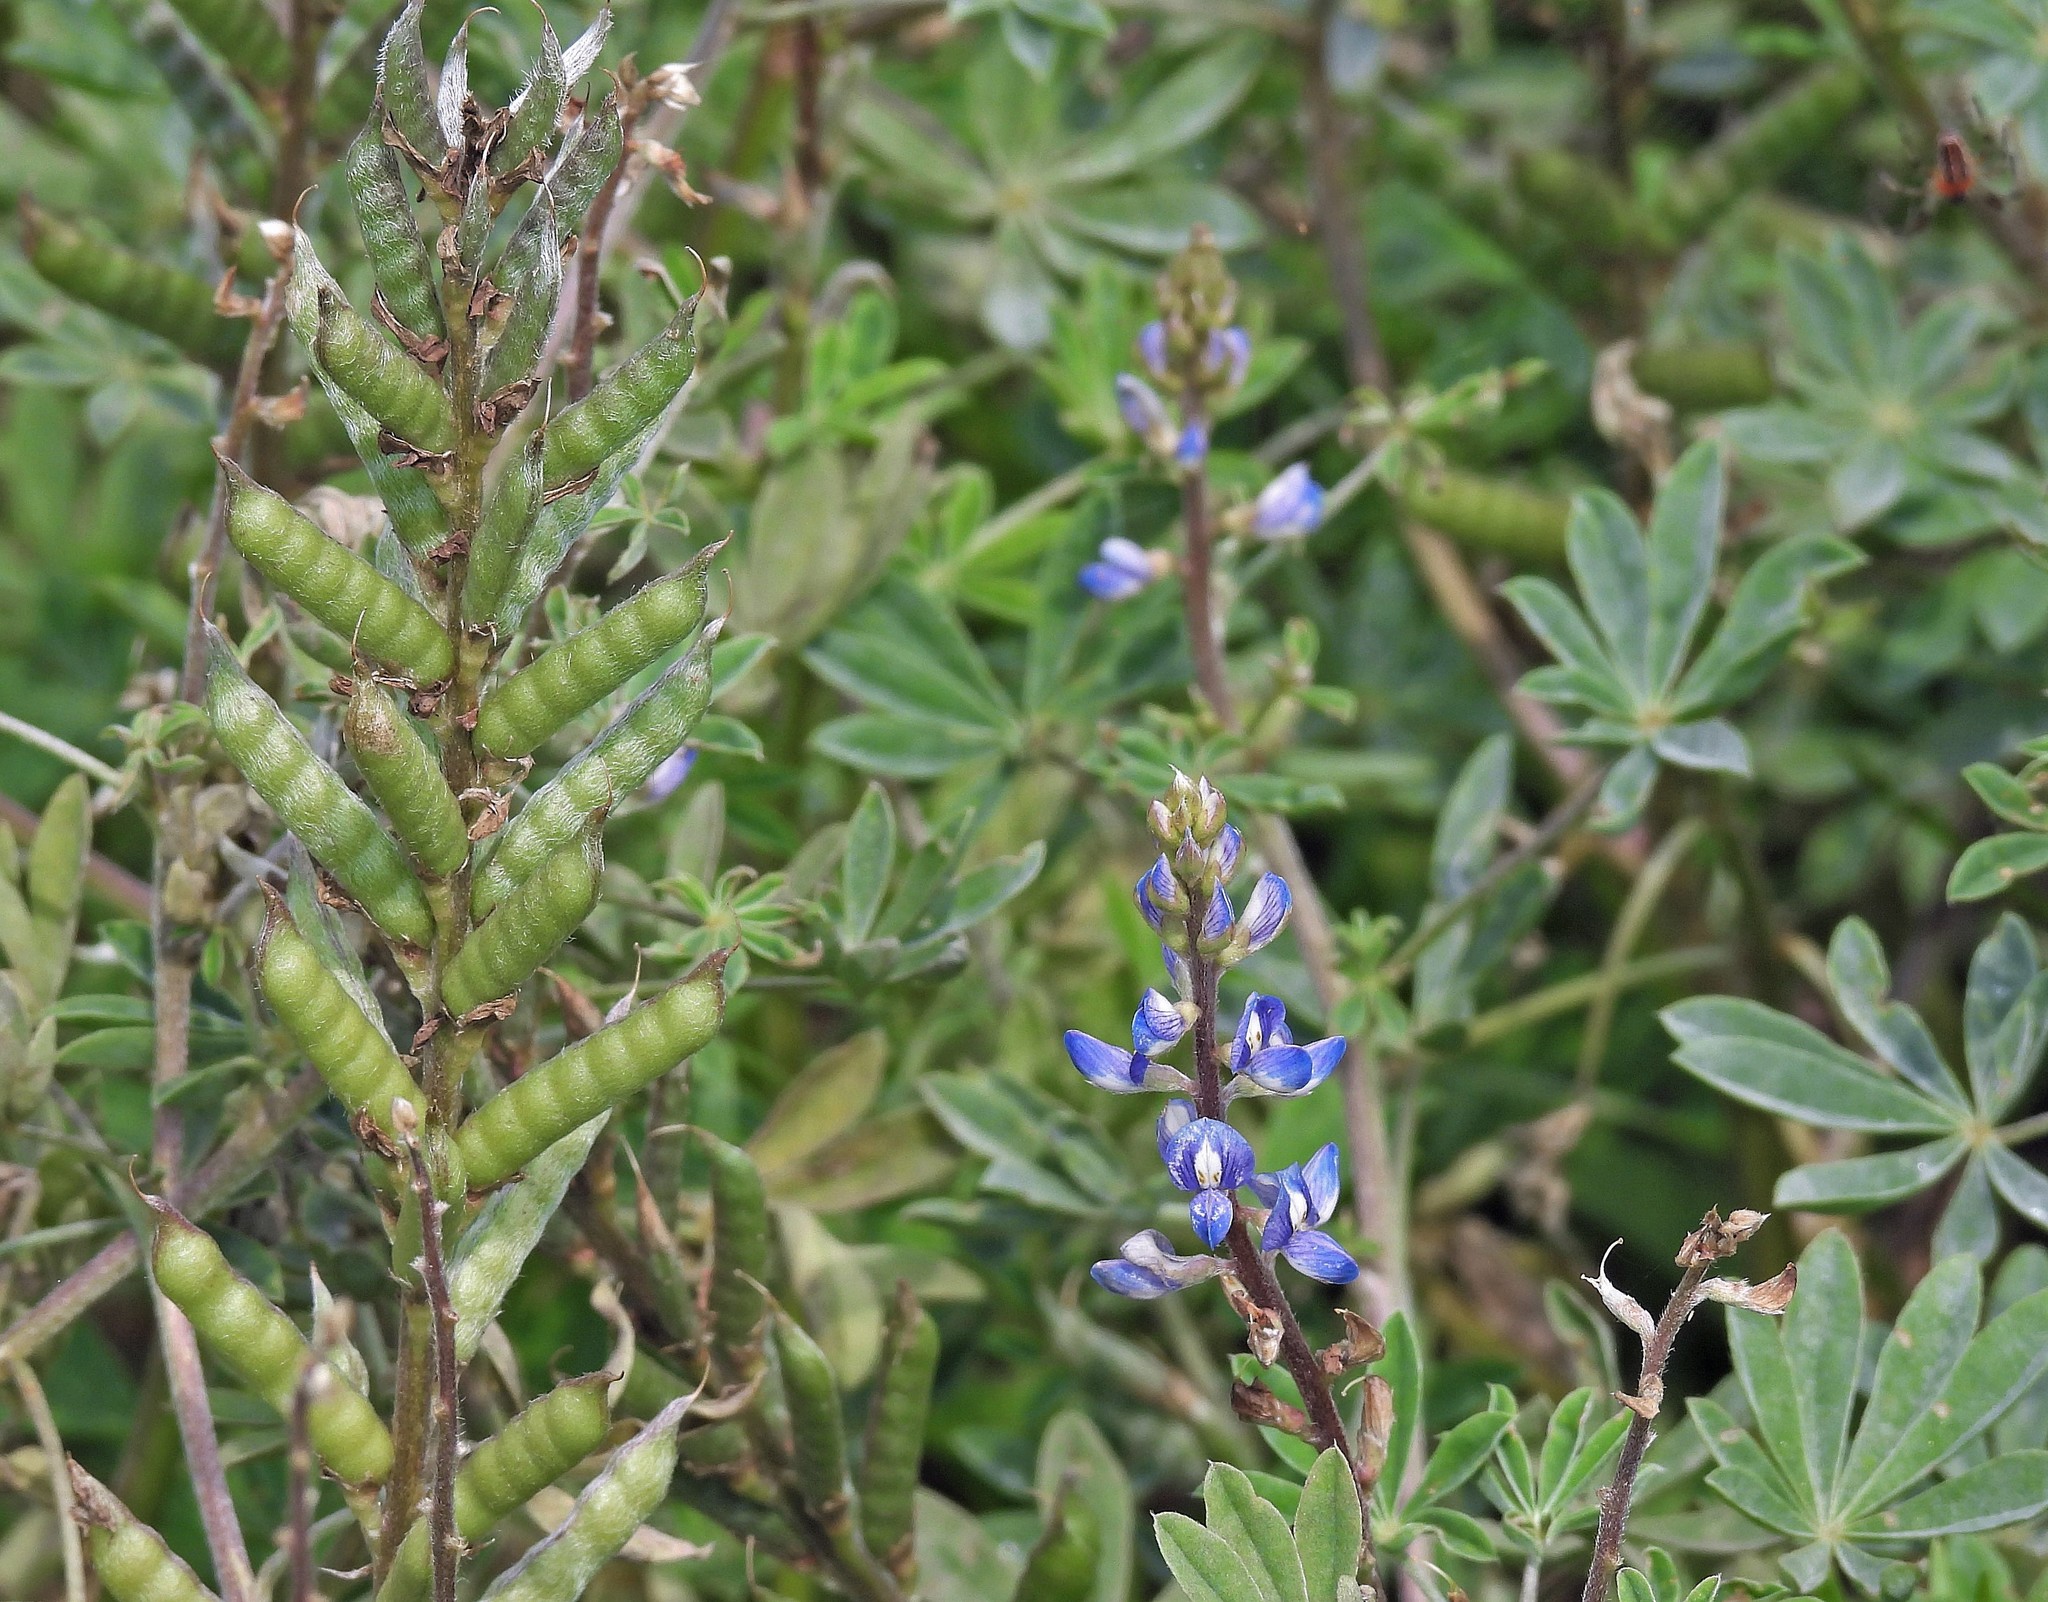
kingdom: Plantae
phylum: Tracheophyta
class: Magnoliopsida
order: Fabales
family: Fabaceae
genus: Lupinus
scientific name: Lupinus gibertianus
